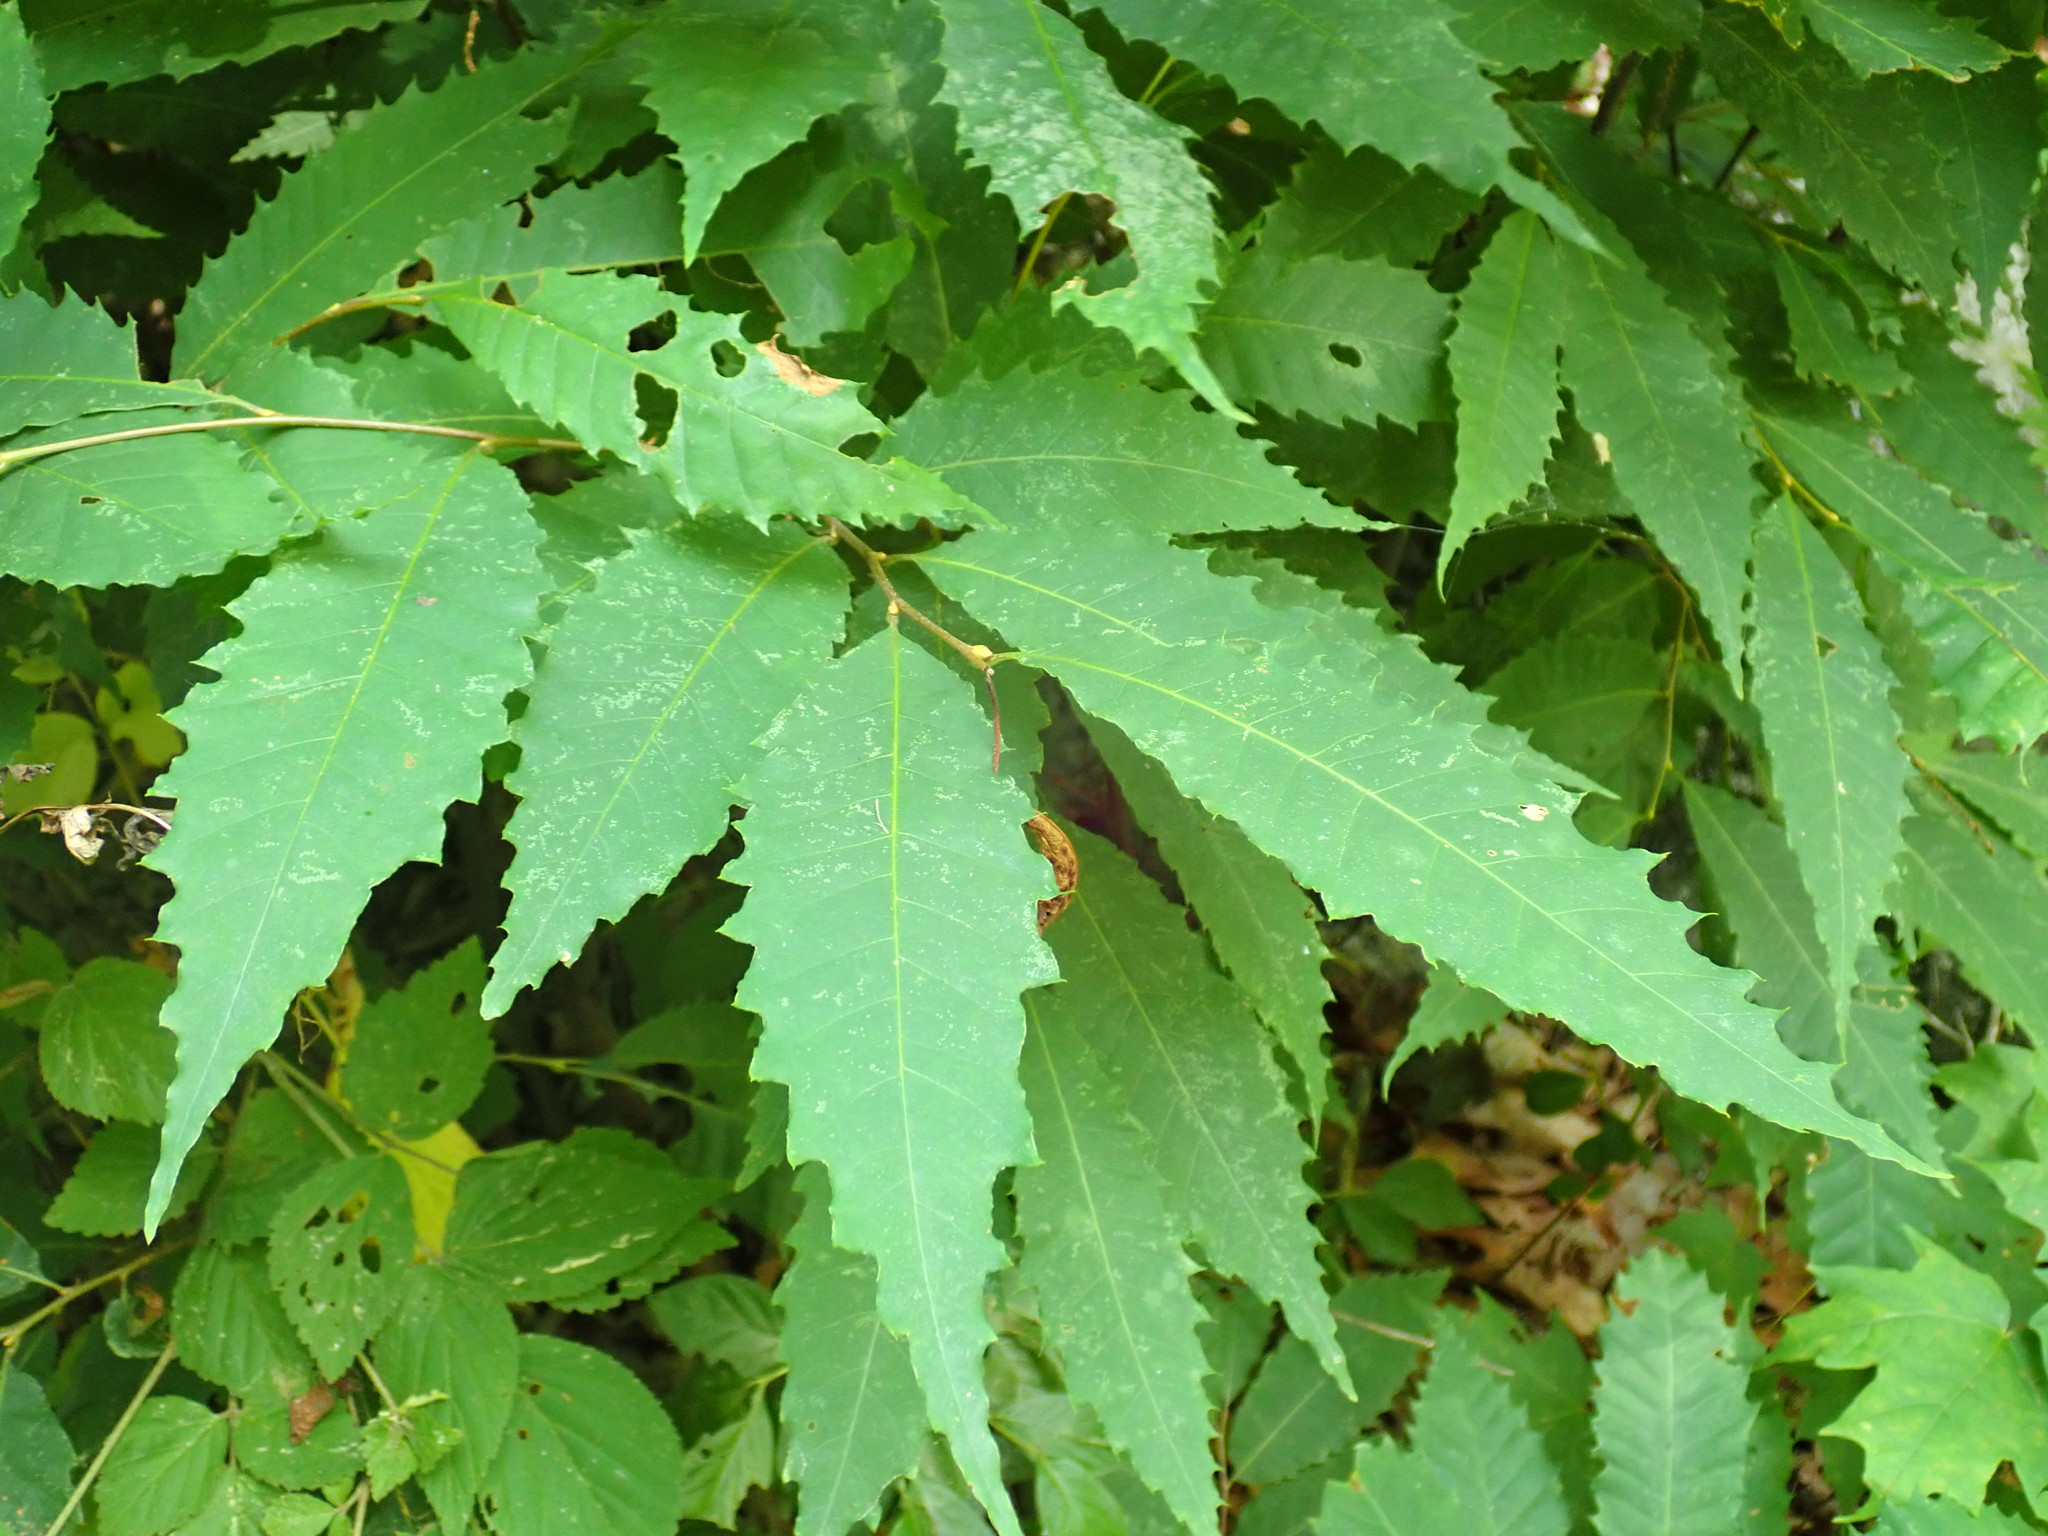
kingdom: Plantae
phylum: Tracheophyta
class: Magnoliopsida
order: Fagales
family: Fagaceae
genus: Castanea
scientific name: Castanea dentata
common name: American chestnut
